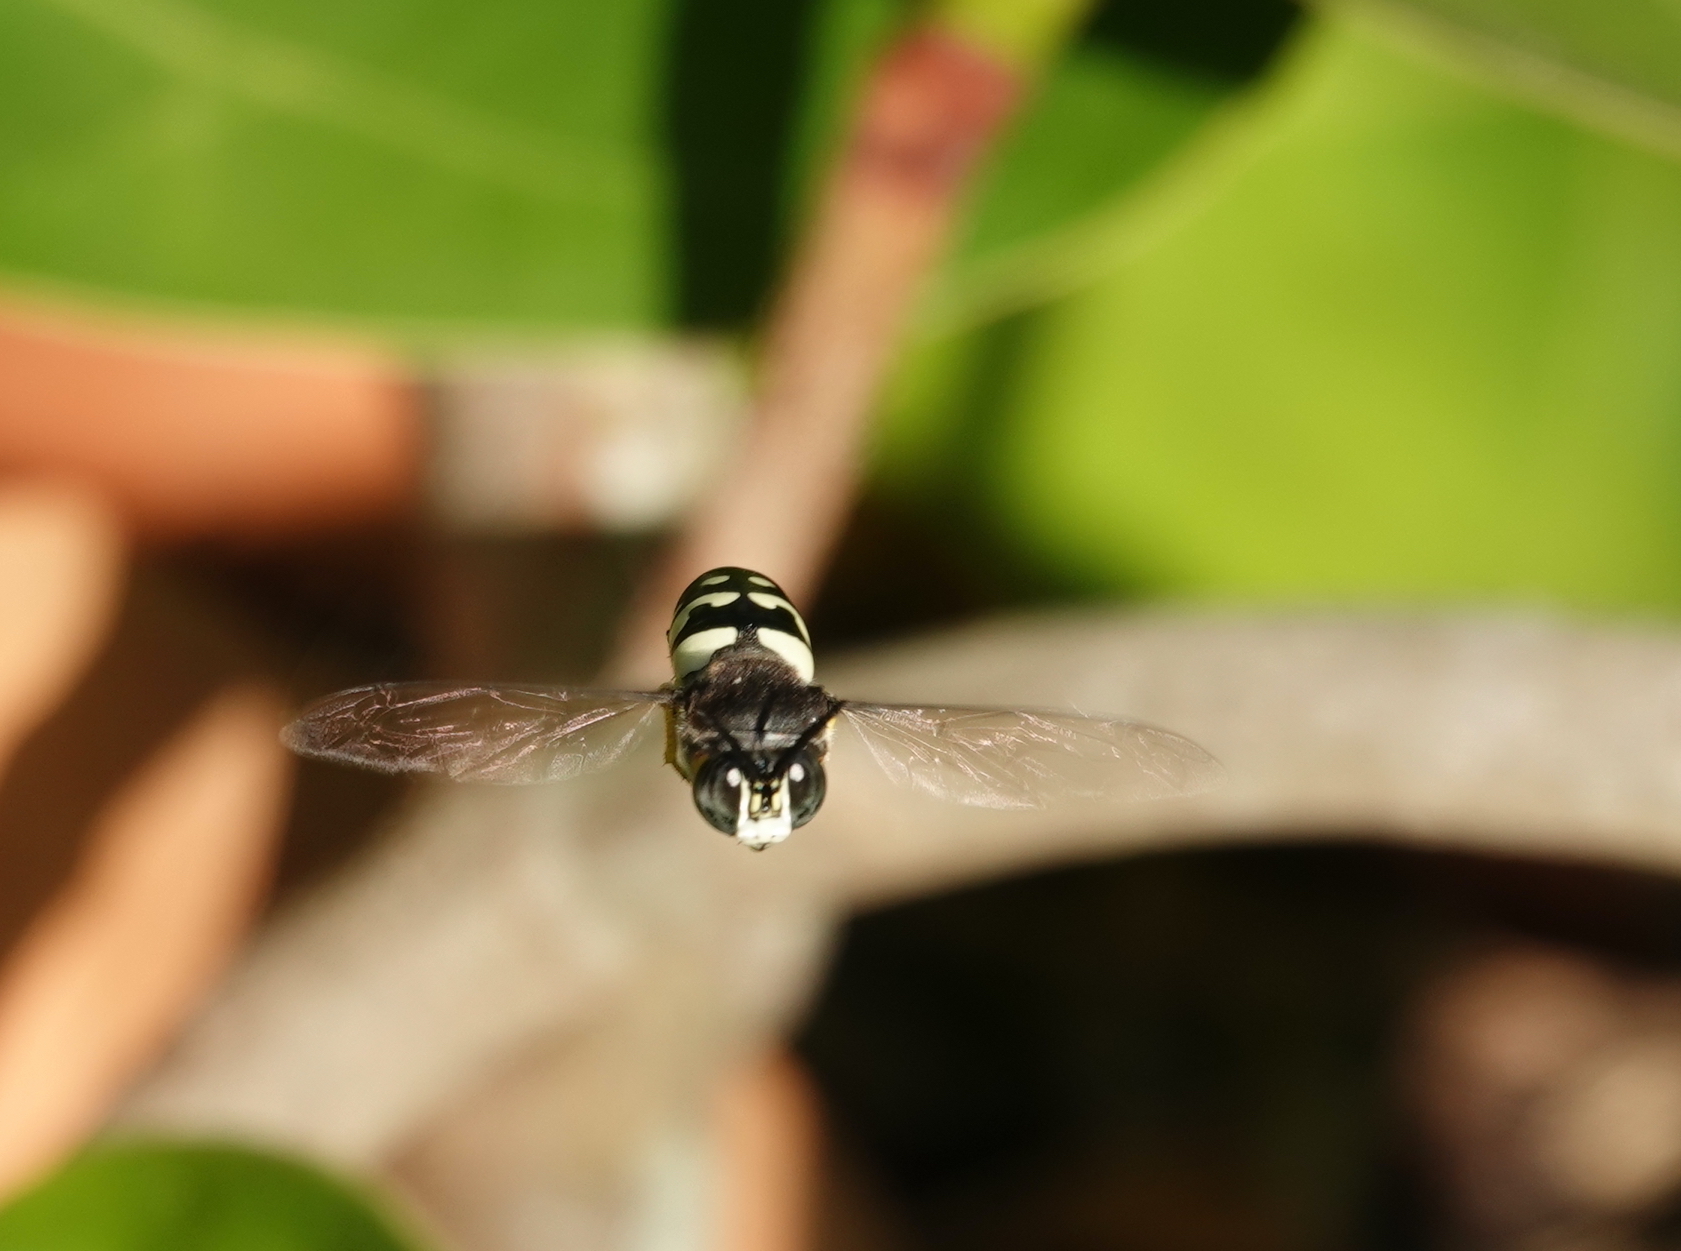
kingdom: Animalia
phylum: Arthropoda
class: Insecta
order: Hymenoptera
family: Crabronidae
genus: Stictia
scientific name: Stictia carolina
